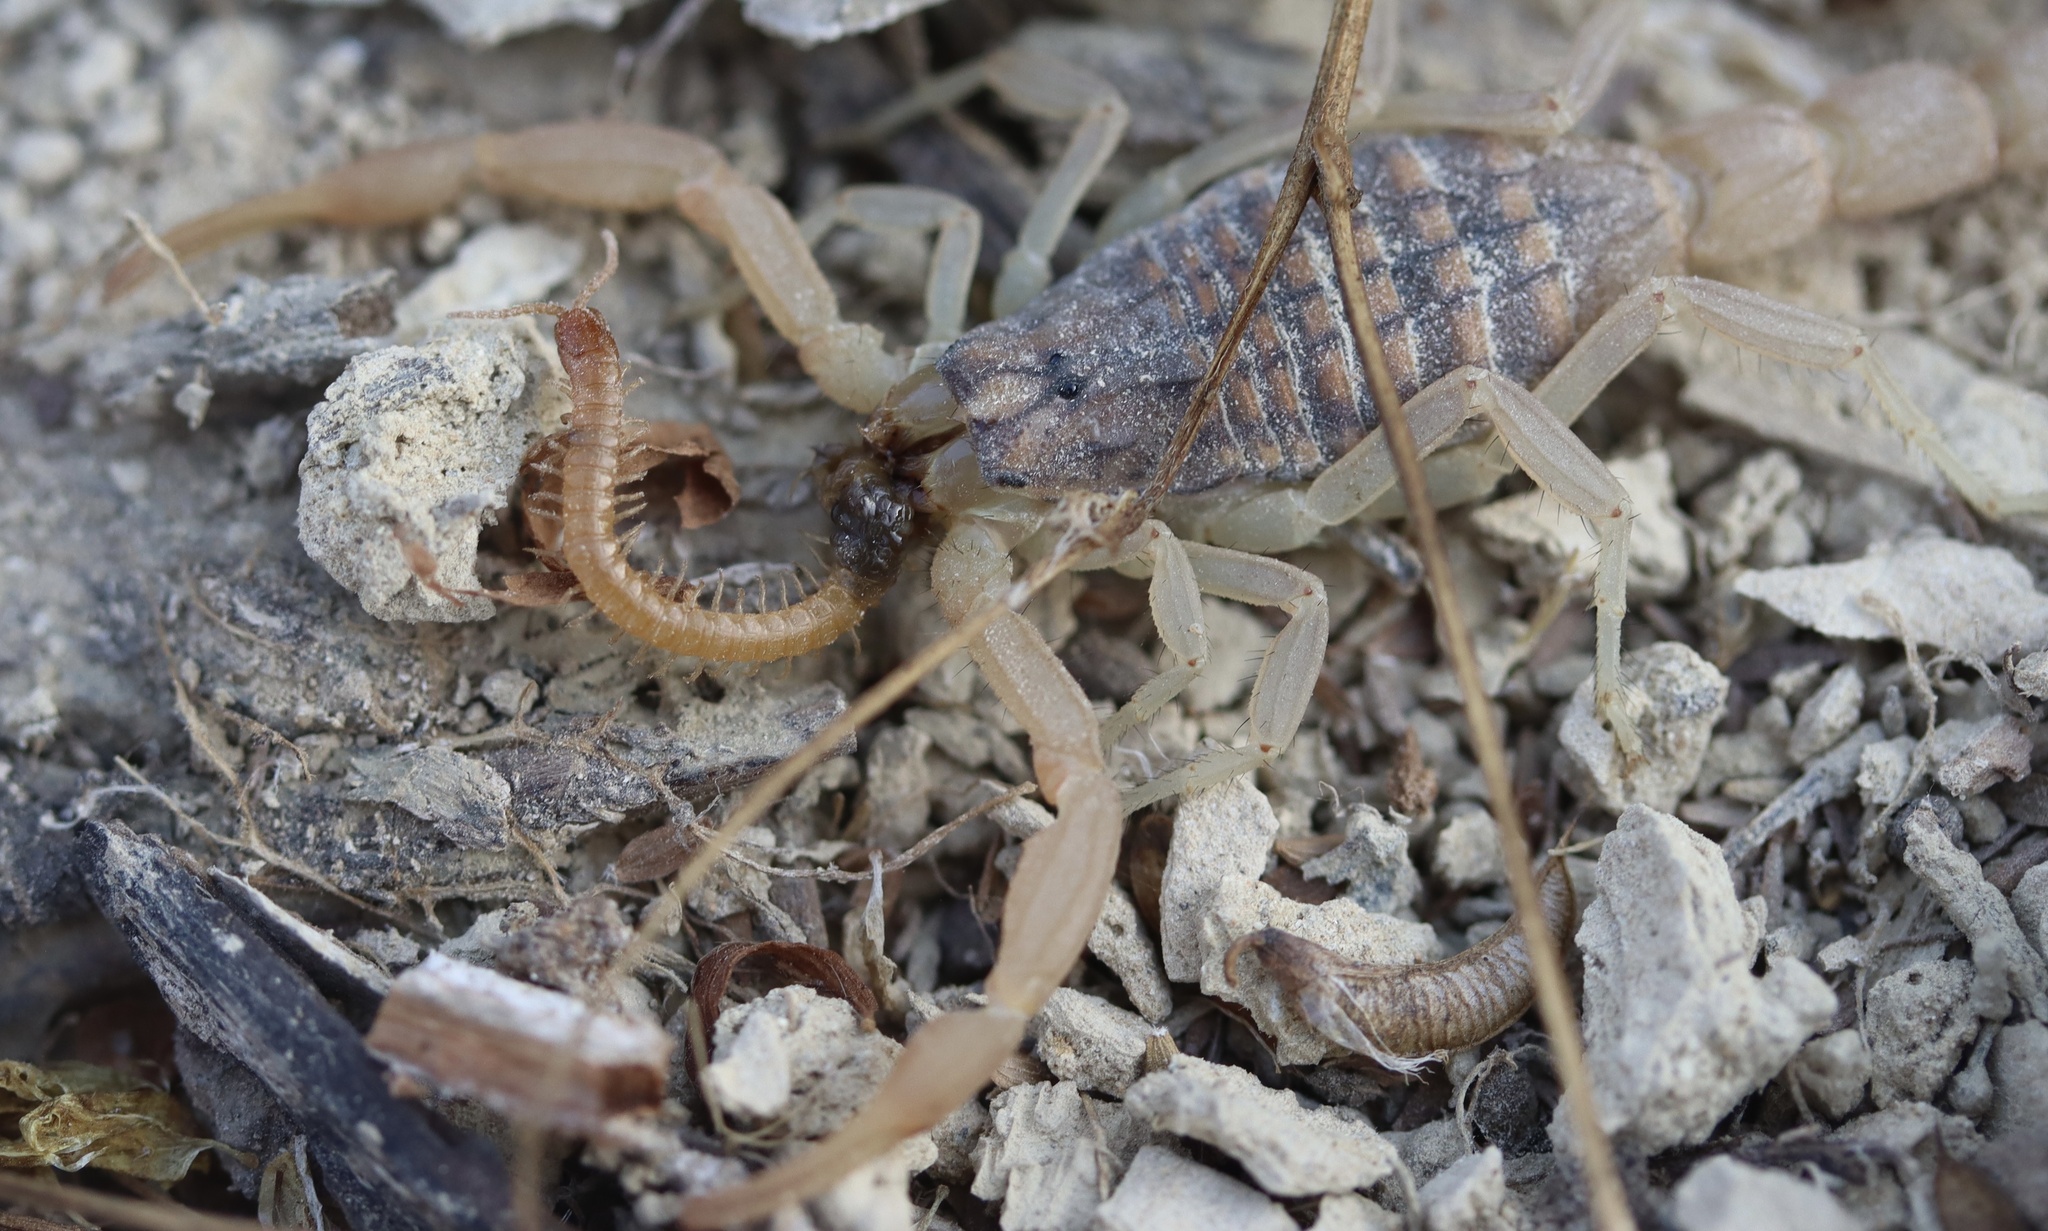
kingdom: Animalia
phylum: Arthropoda
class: Arachnida
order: Scorpiones
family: Buthidae
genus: Aegaeobuthus
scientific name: Aegaeobuthus gibbosus
